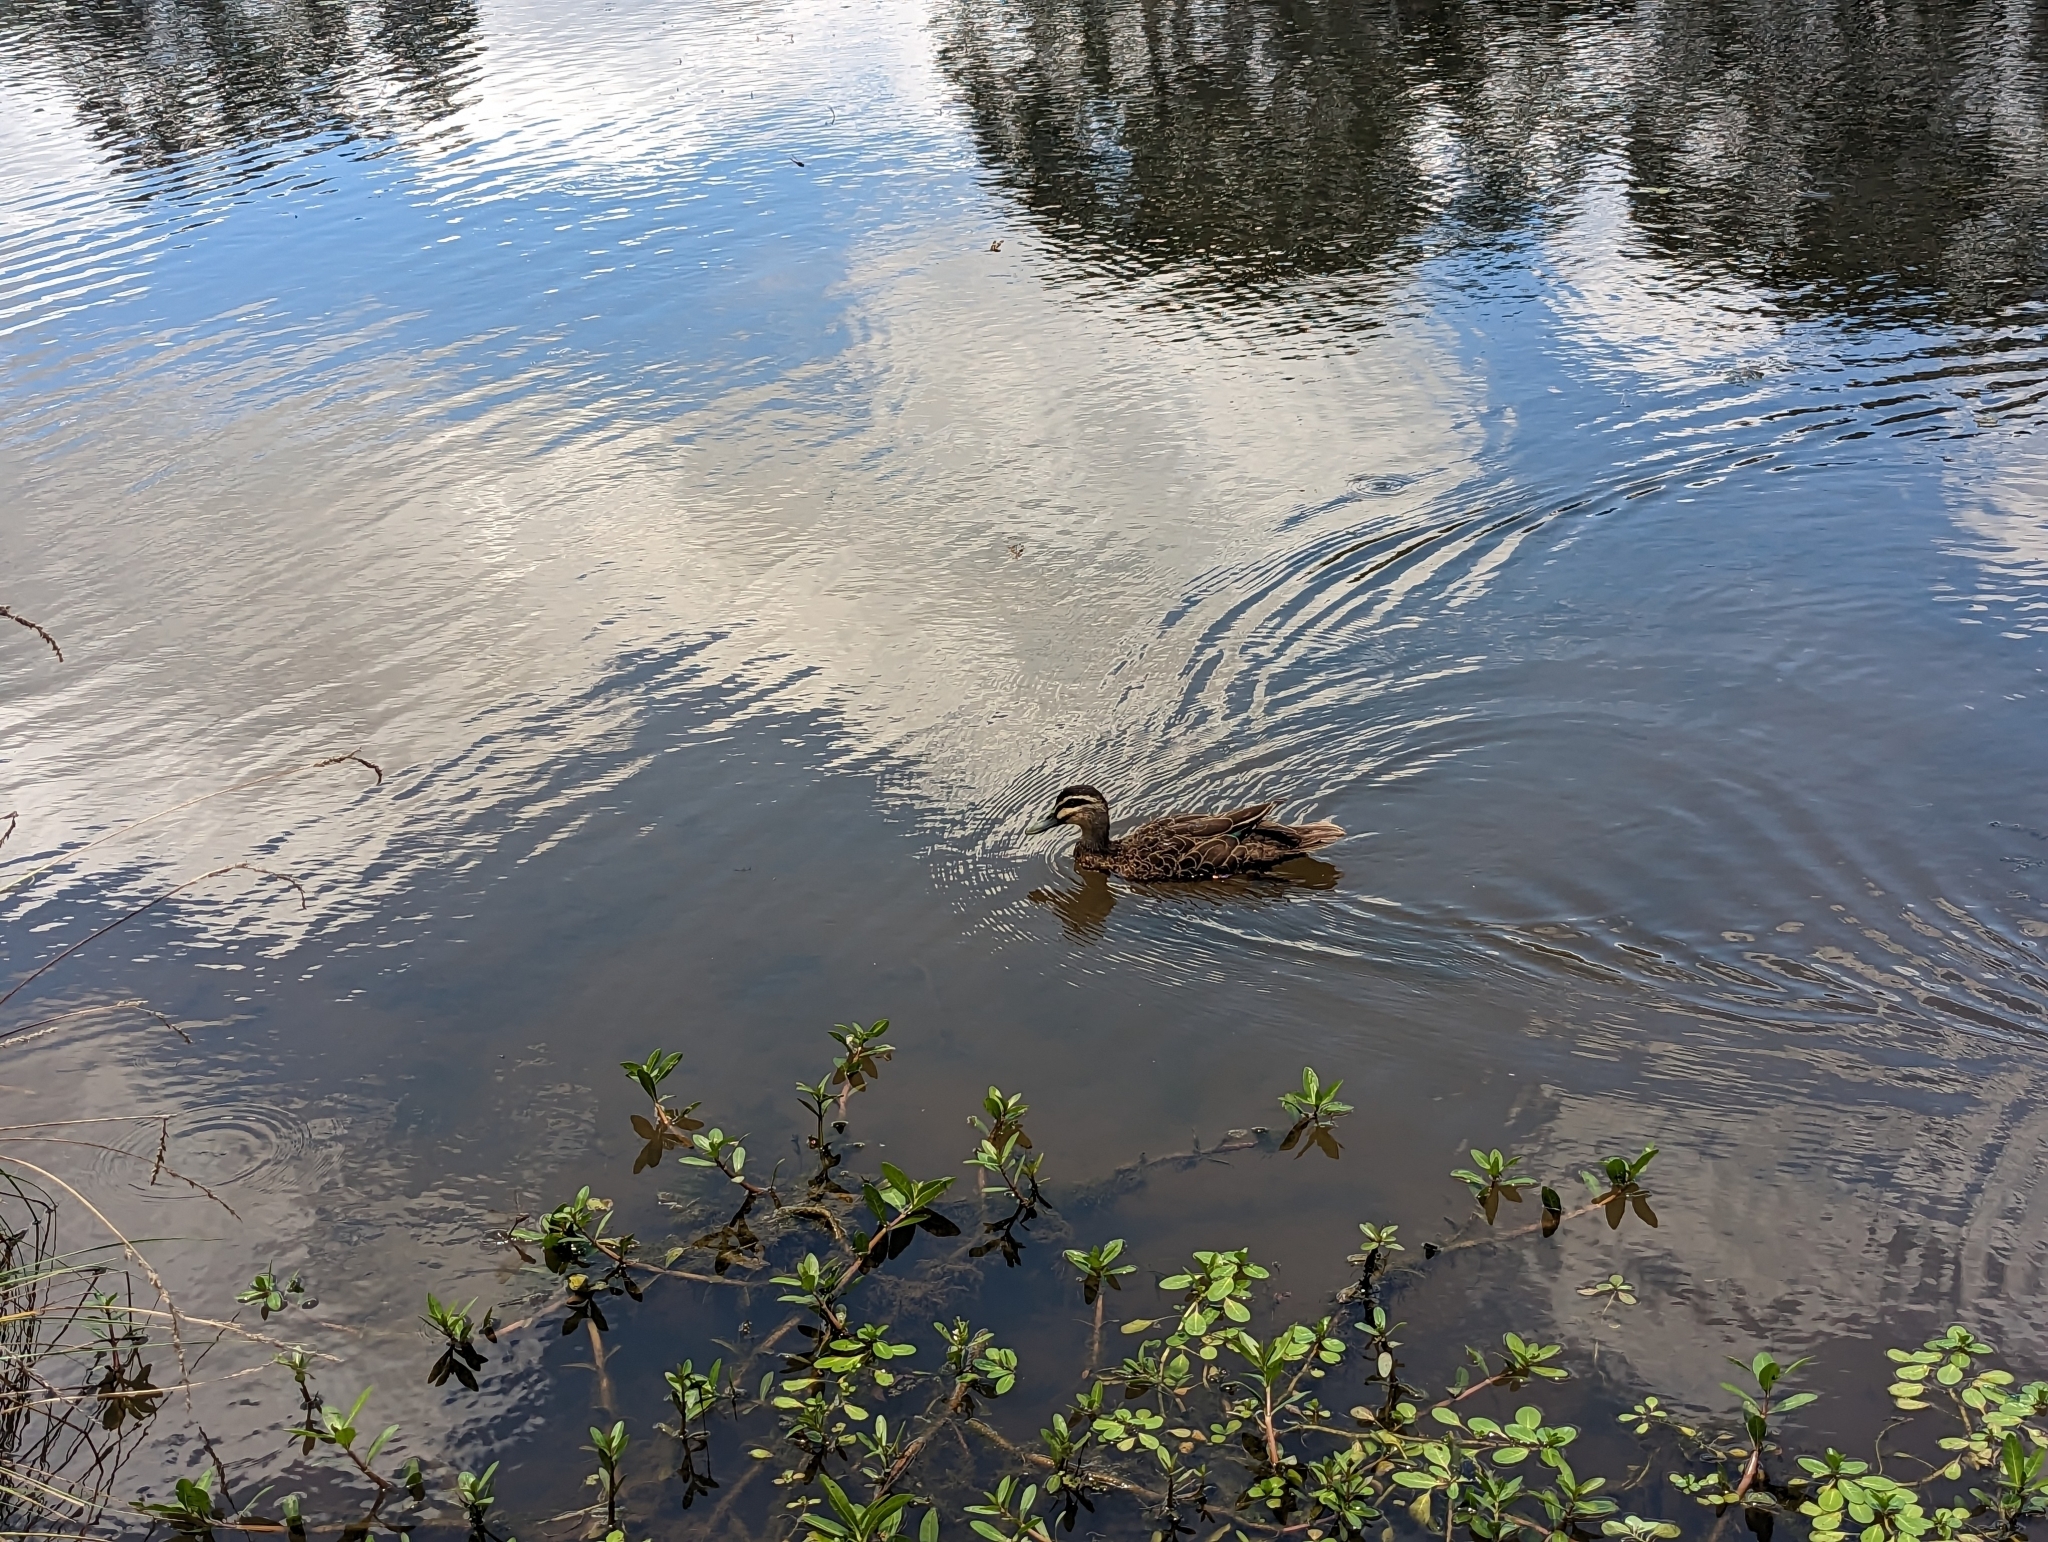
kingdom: Animalia
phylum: Chordata
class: Aves
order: Anseriformes
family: Anatidae
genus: Anas
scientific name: Anas superciliosa
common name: Pacific black duck
